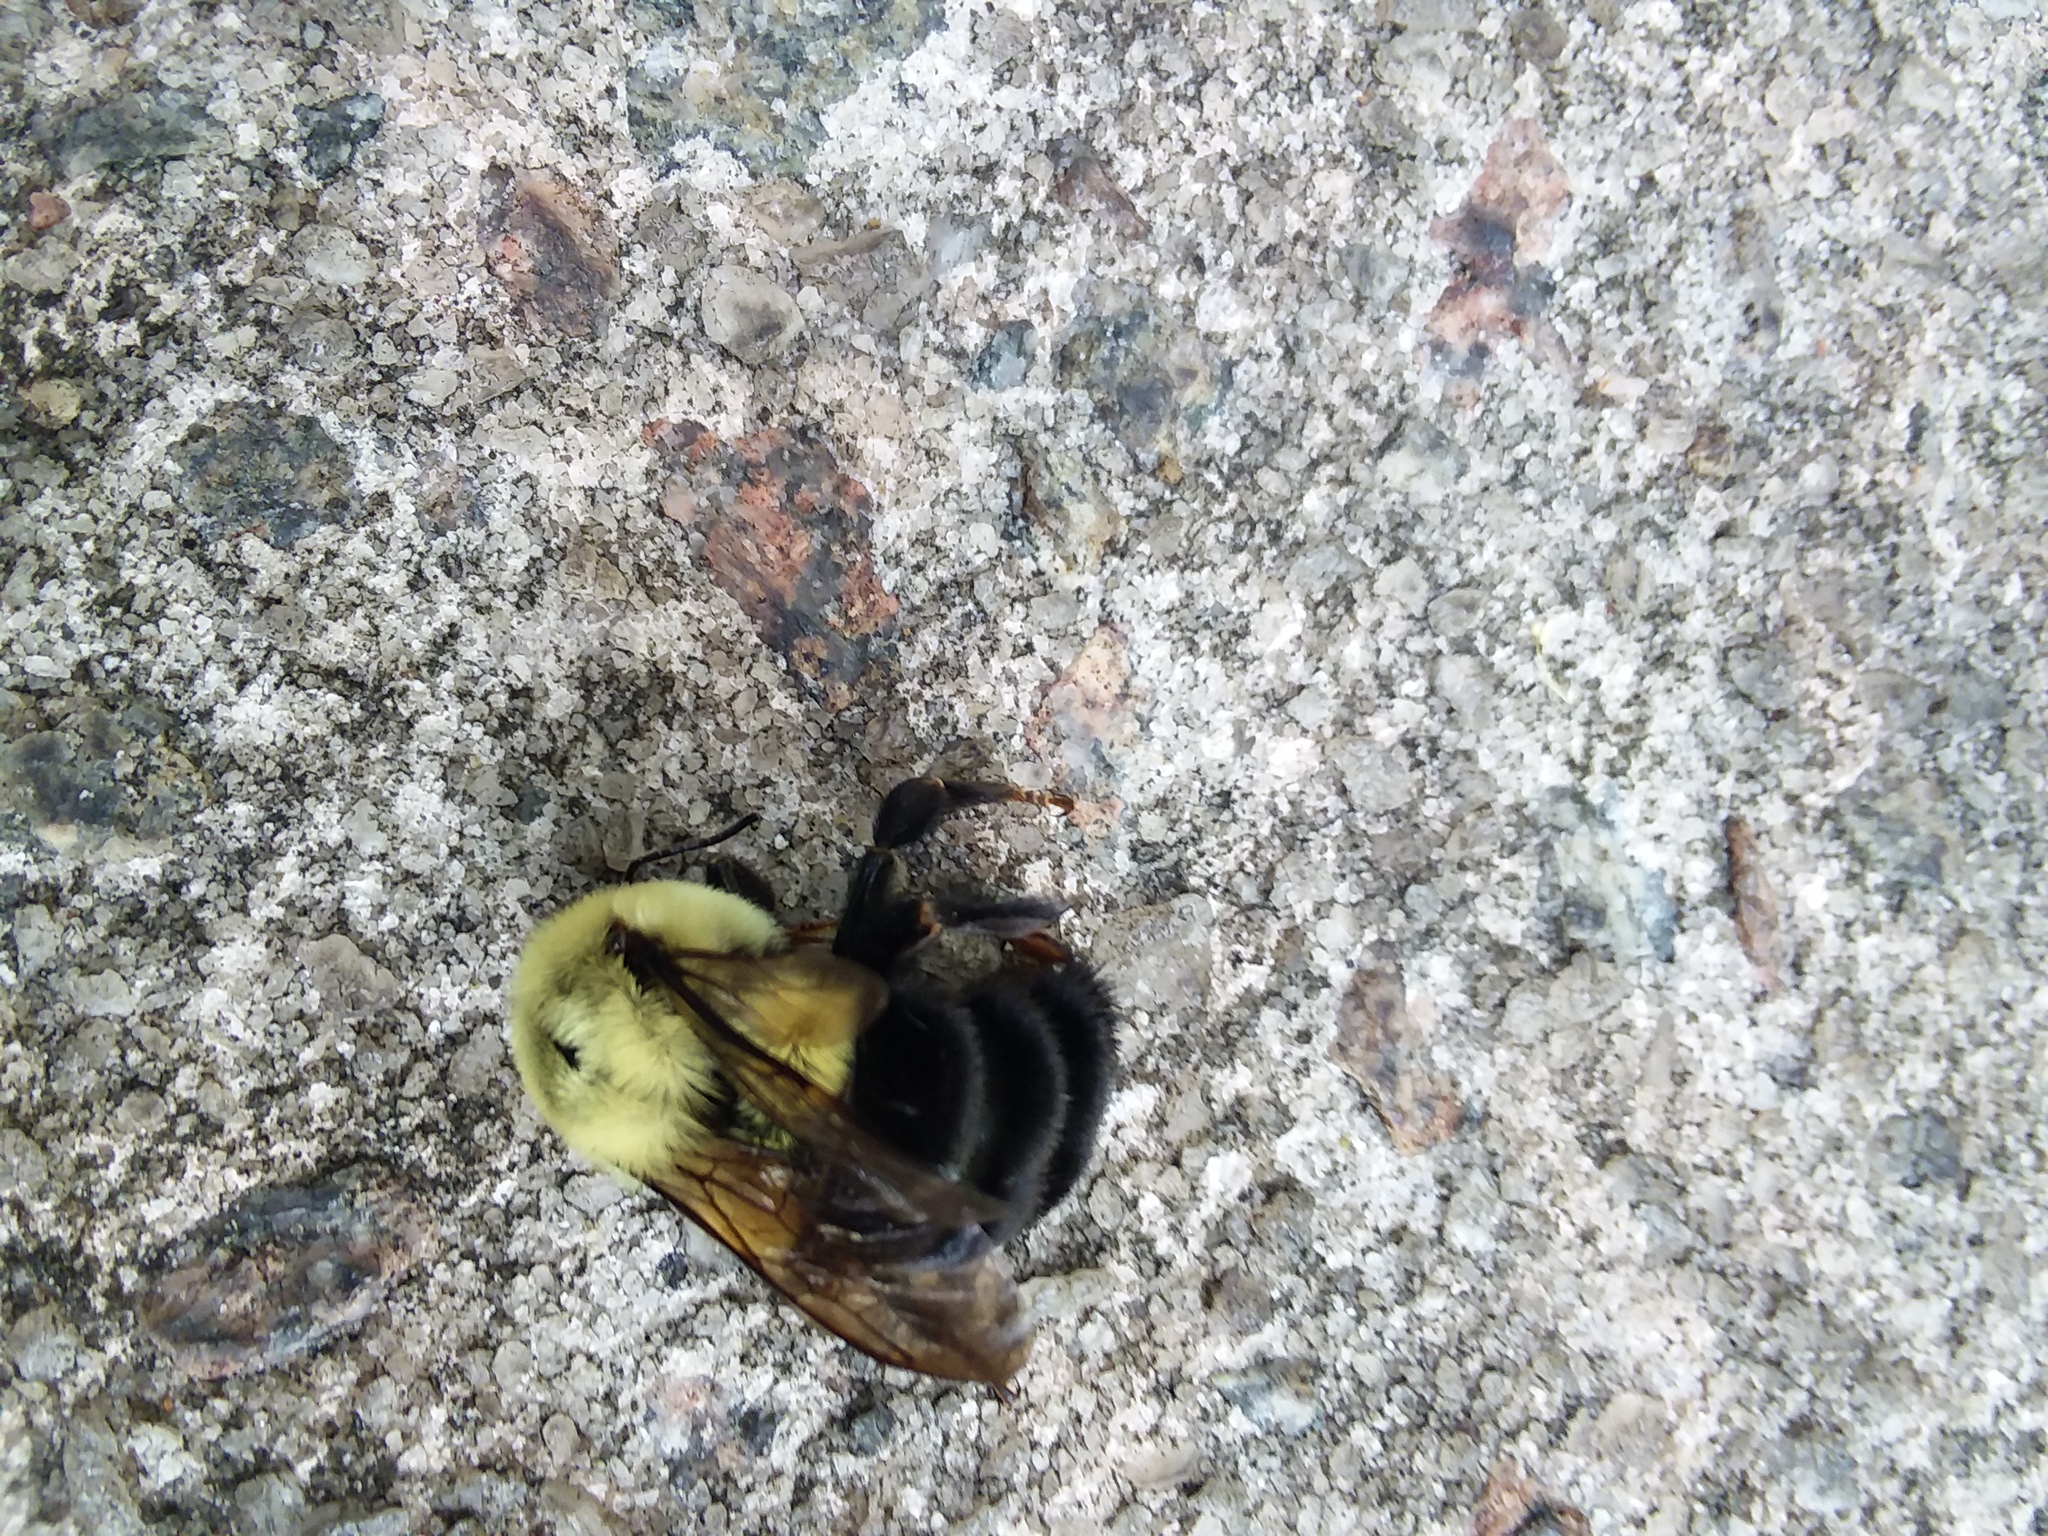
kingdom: Animalia
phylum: Arthropoda
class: Insecta
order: Hymenoptera
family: Apidae
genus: Bombus
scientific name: Bombus impatiens
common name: Common eastern bumble bee
